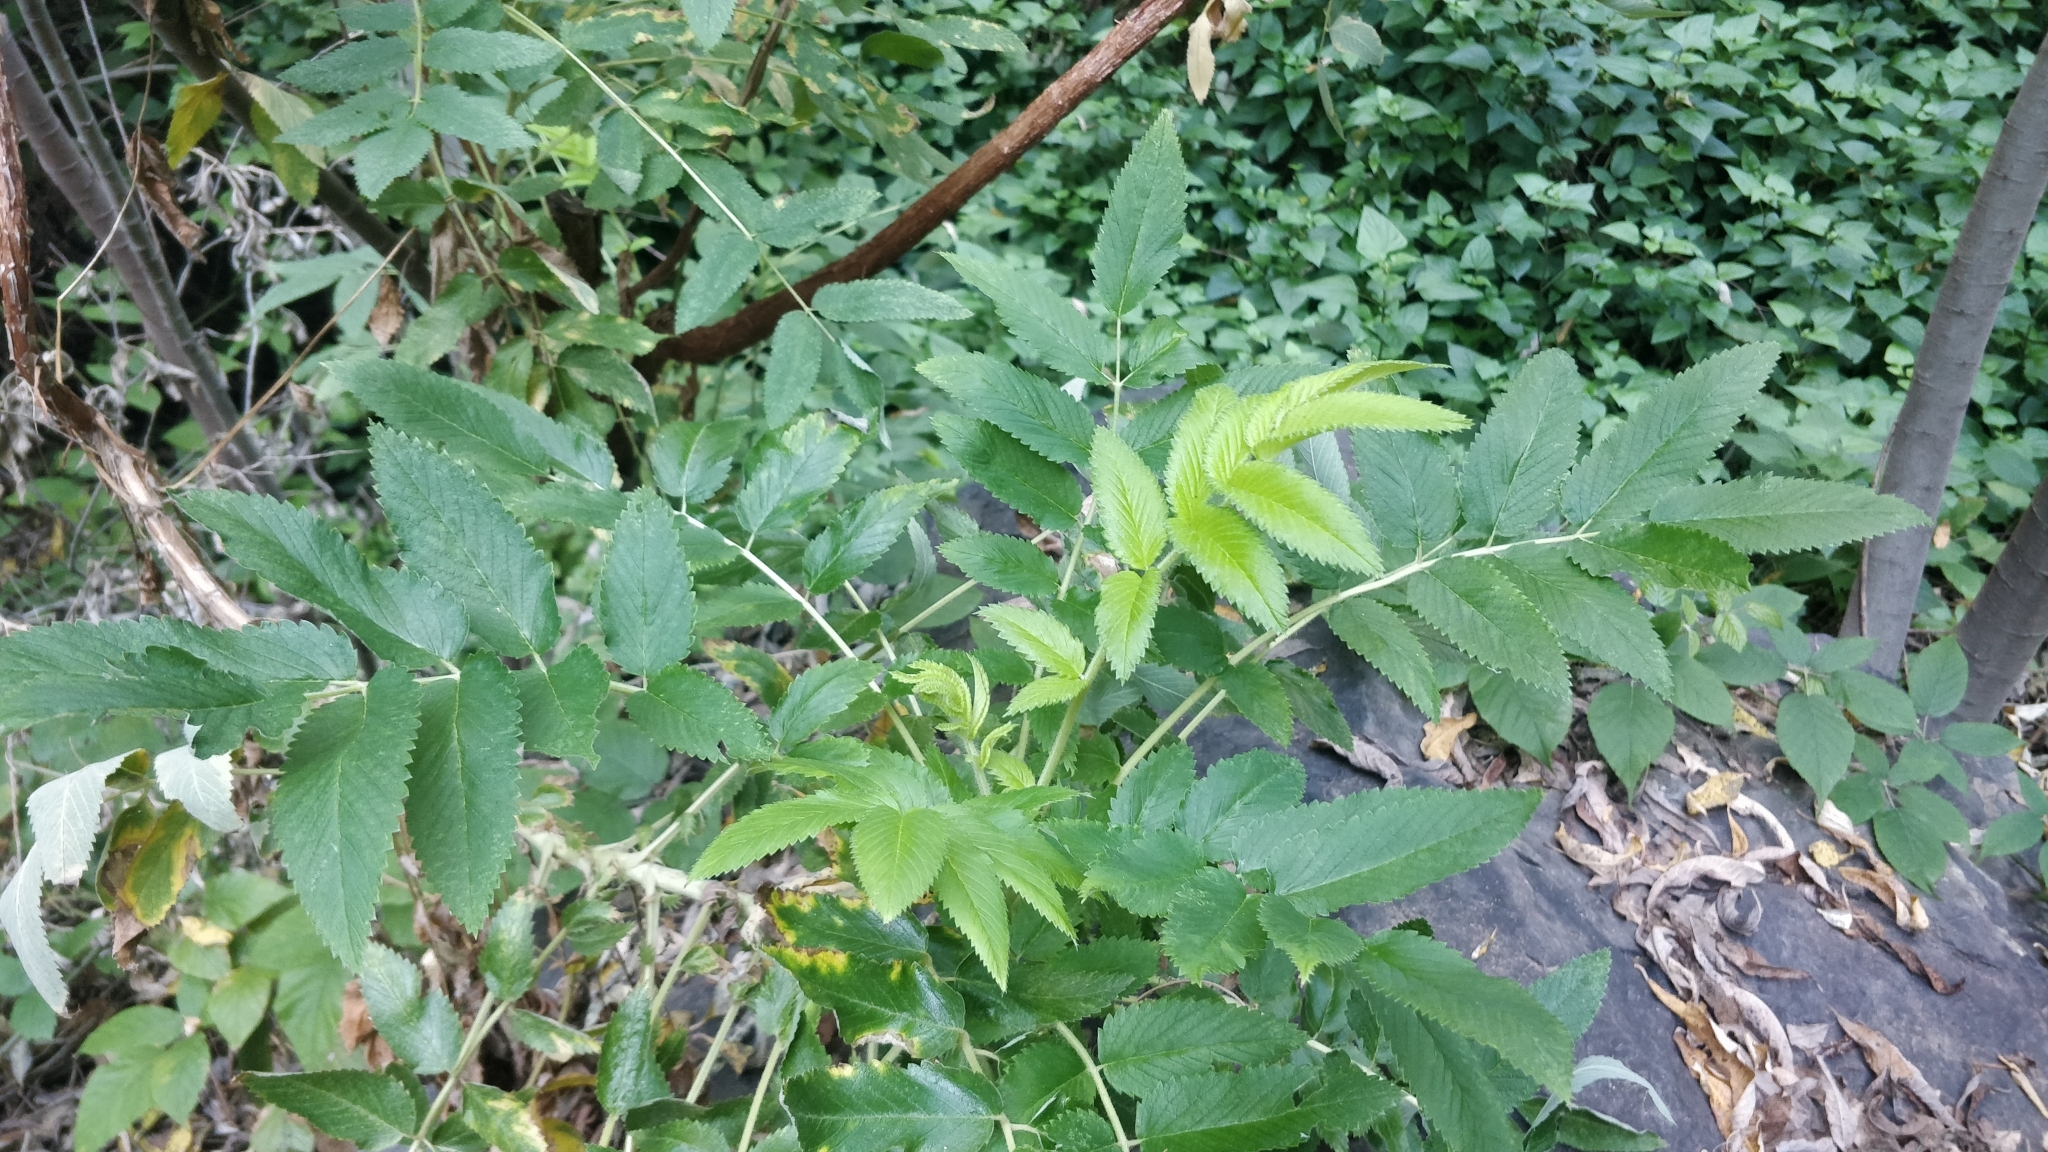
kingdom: Plantae
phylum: Tracheophyta
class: Magnoliopsida
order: Rosales
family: Rosaceae
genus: Bencomia
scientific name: Bencomia caudata
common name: Bencomia
